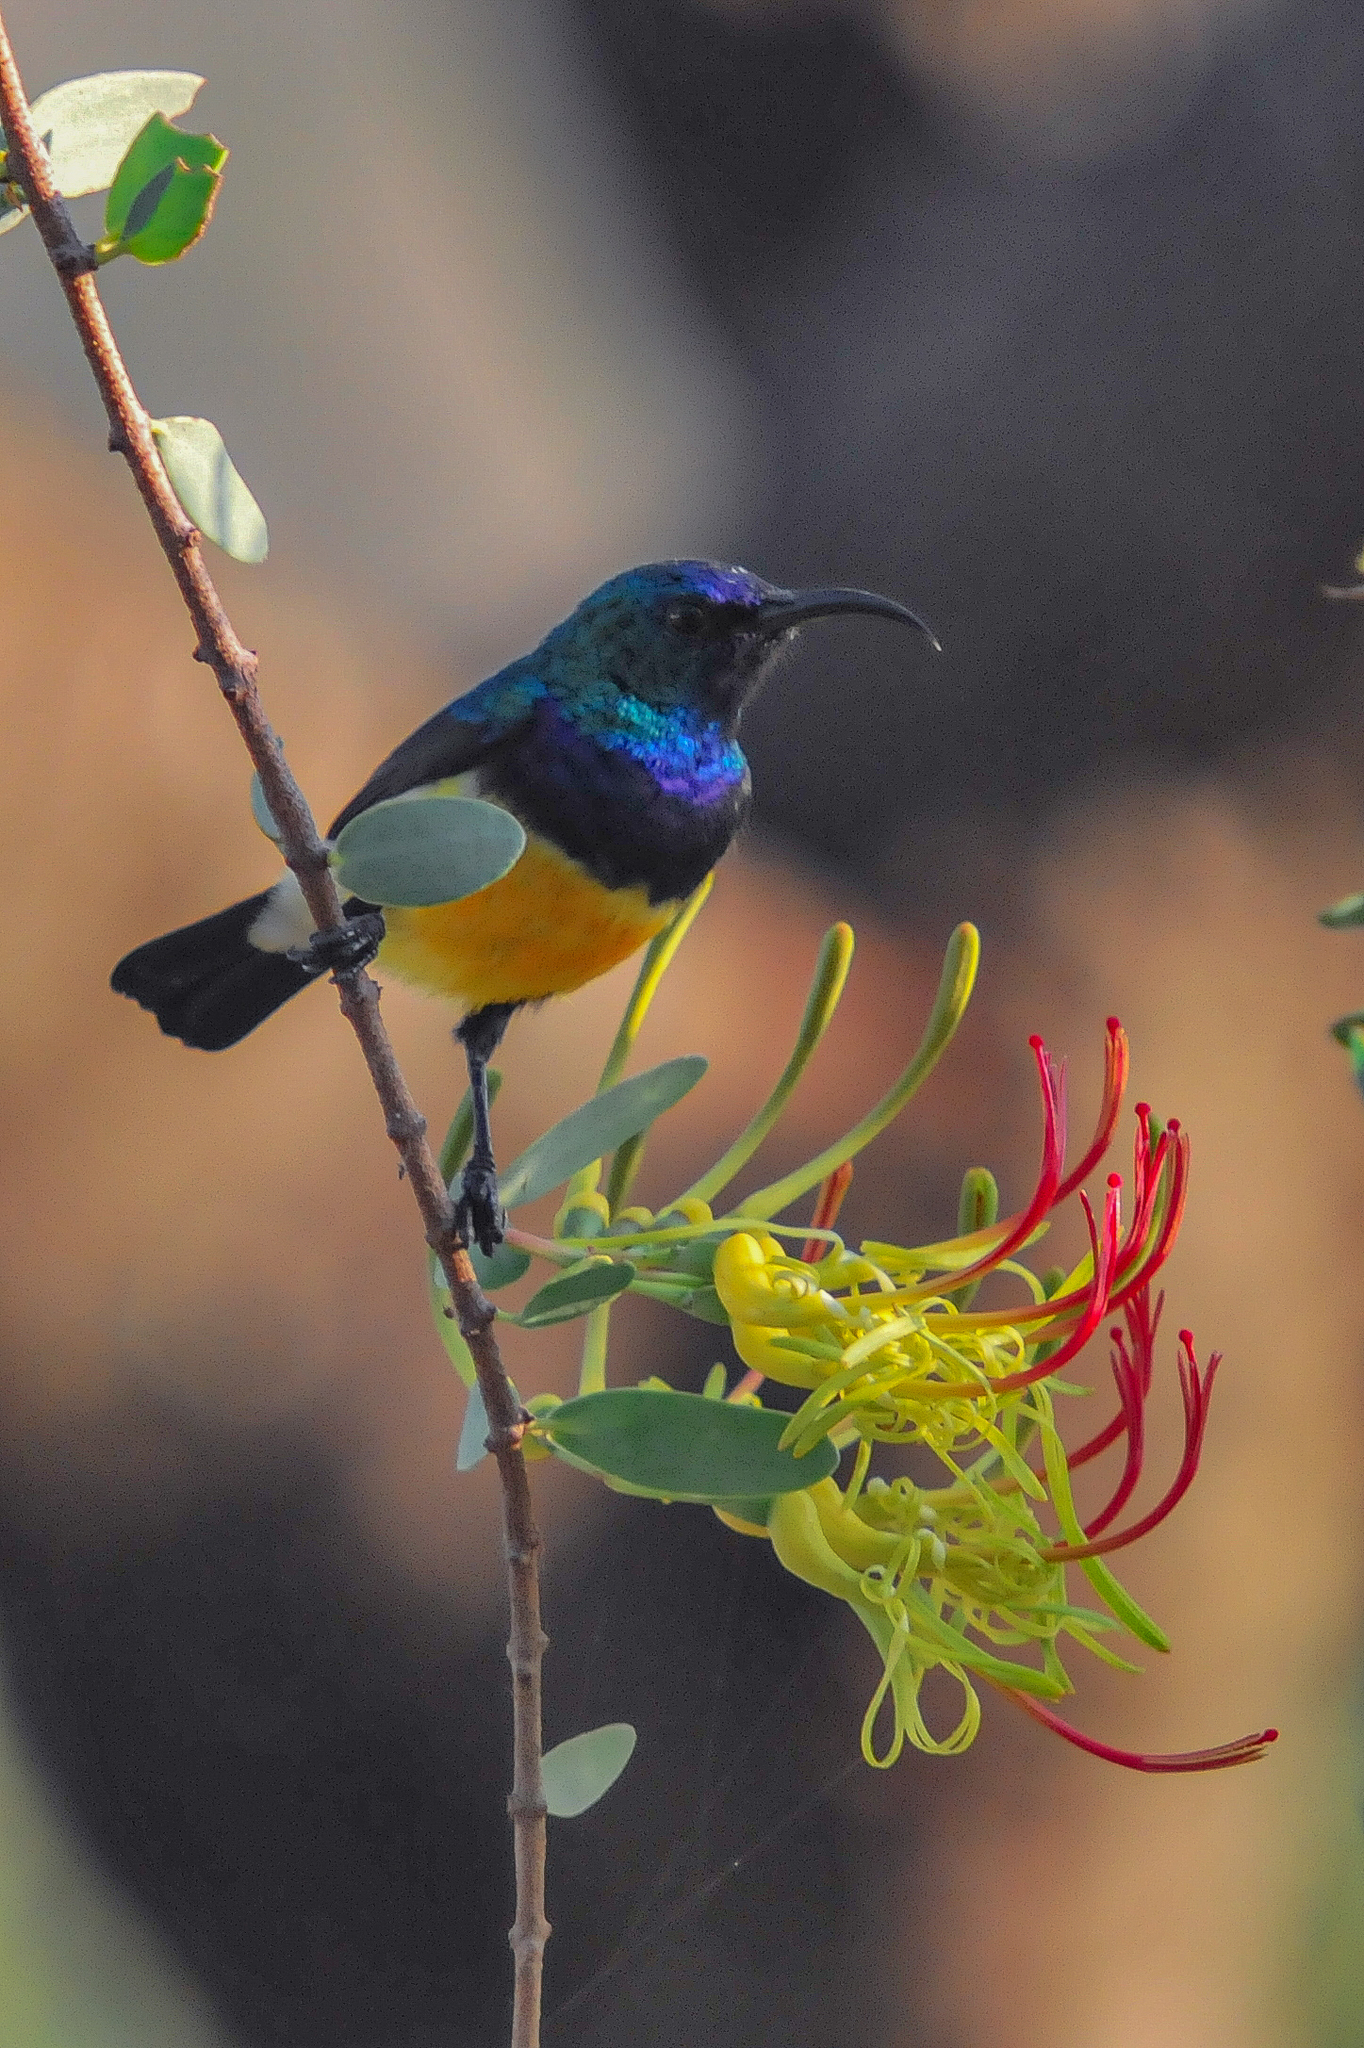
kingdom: Animalia
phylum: Chordata
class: Aves
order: Passeriformes
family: Nectariniidae
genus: Cinnyris
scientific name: Cinnyris venustus
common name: Variable sunbird
